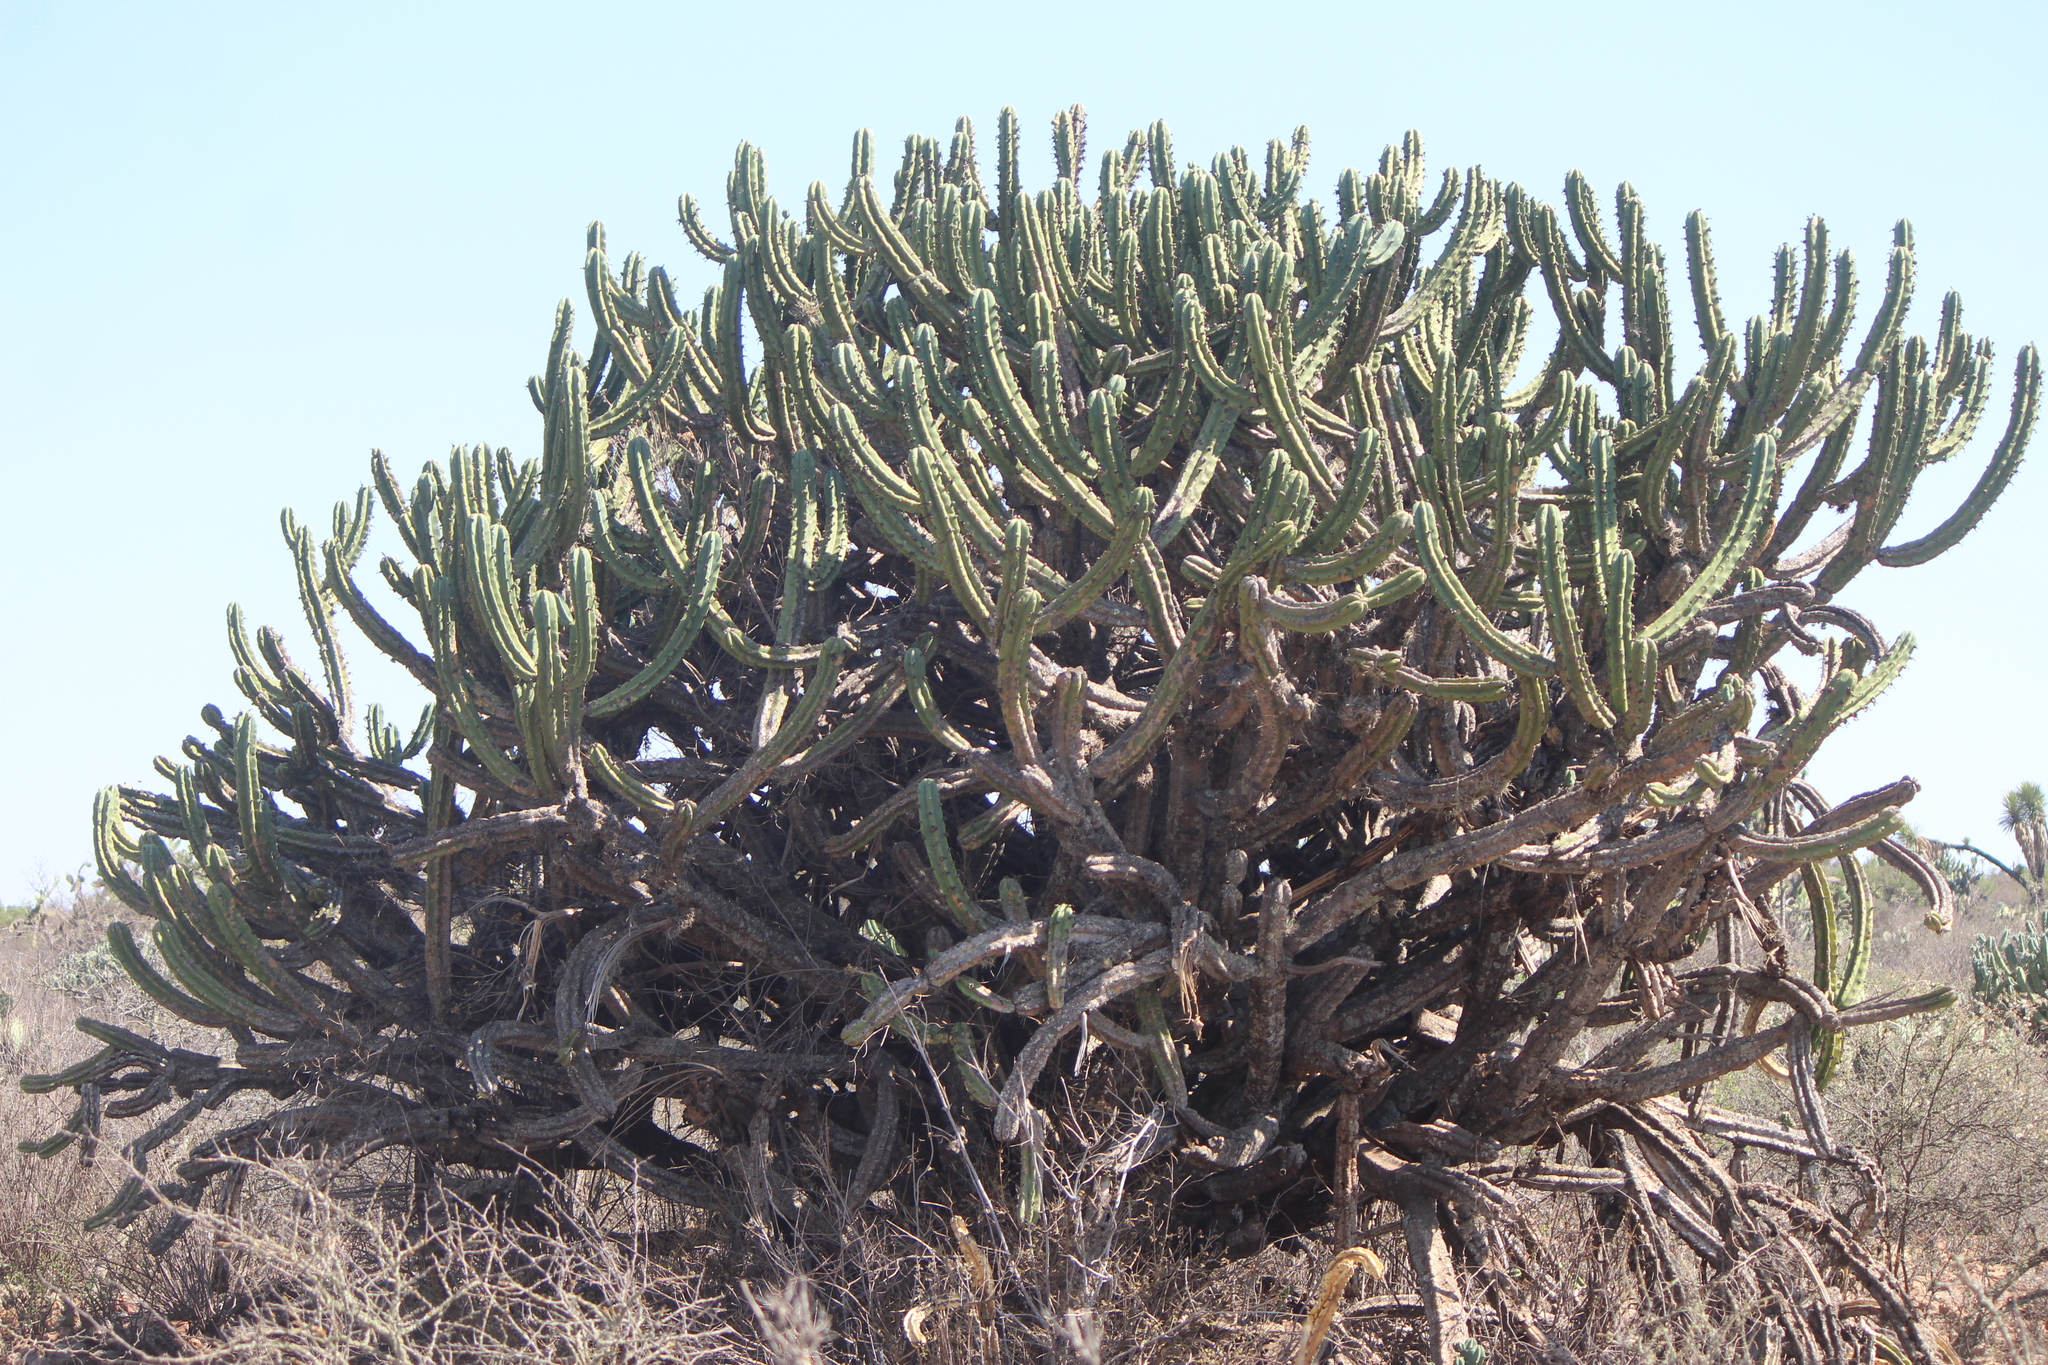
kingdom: Plantae
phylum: Tracheophyta
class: Magnoliopsida
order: Caryophyllales
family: Cactaceae
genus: Myrtillocactus
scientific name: Myrtillocactus geometrizans
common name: Bilberry cactus
